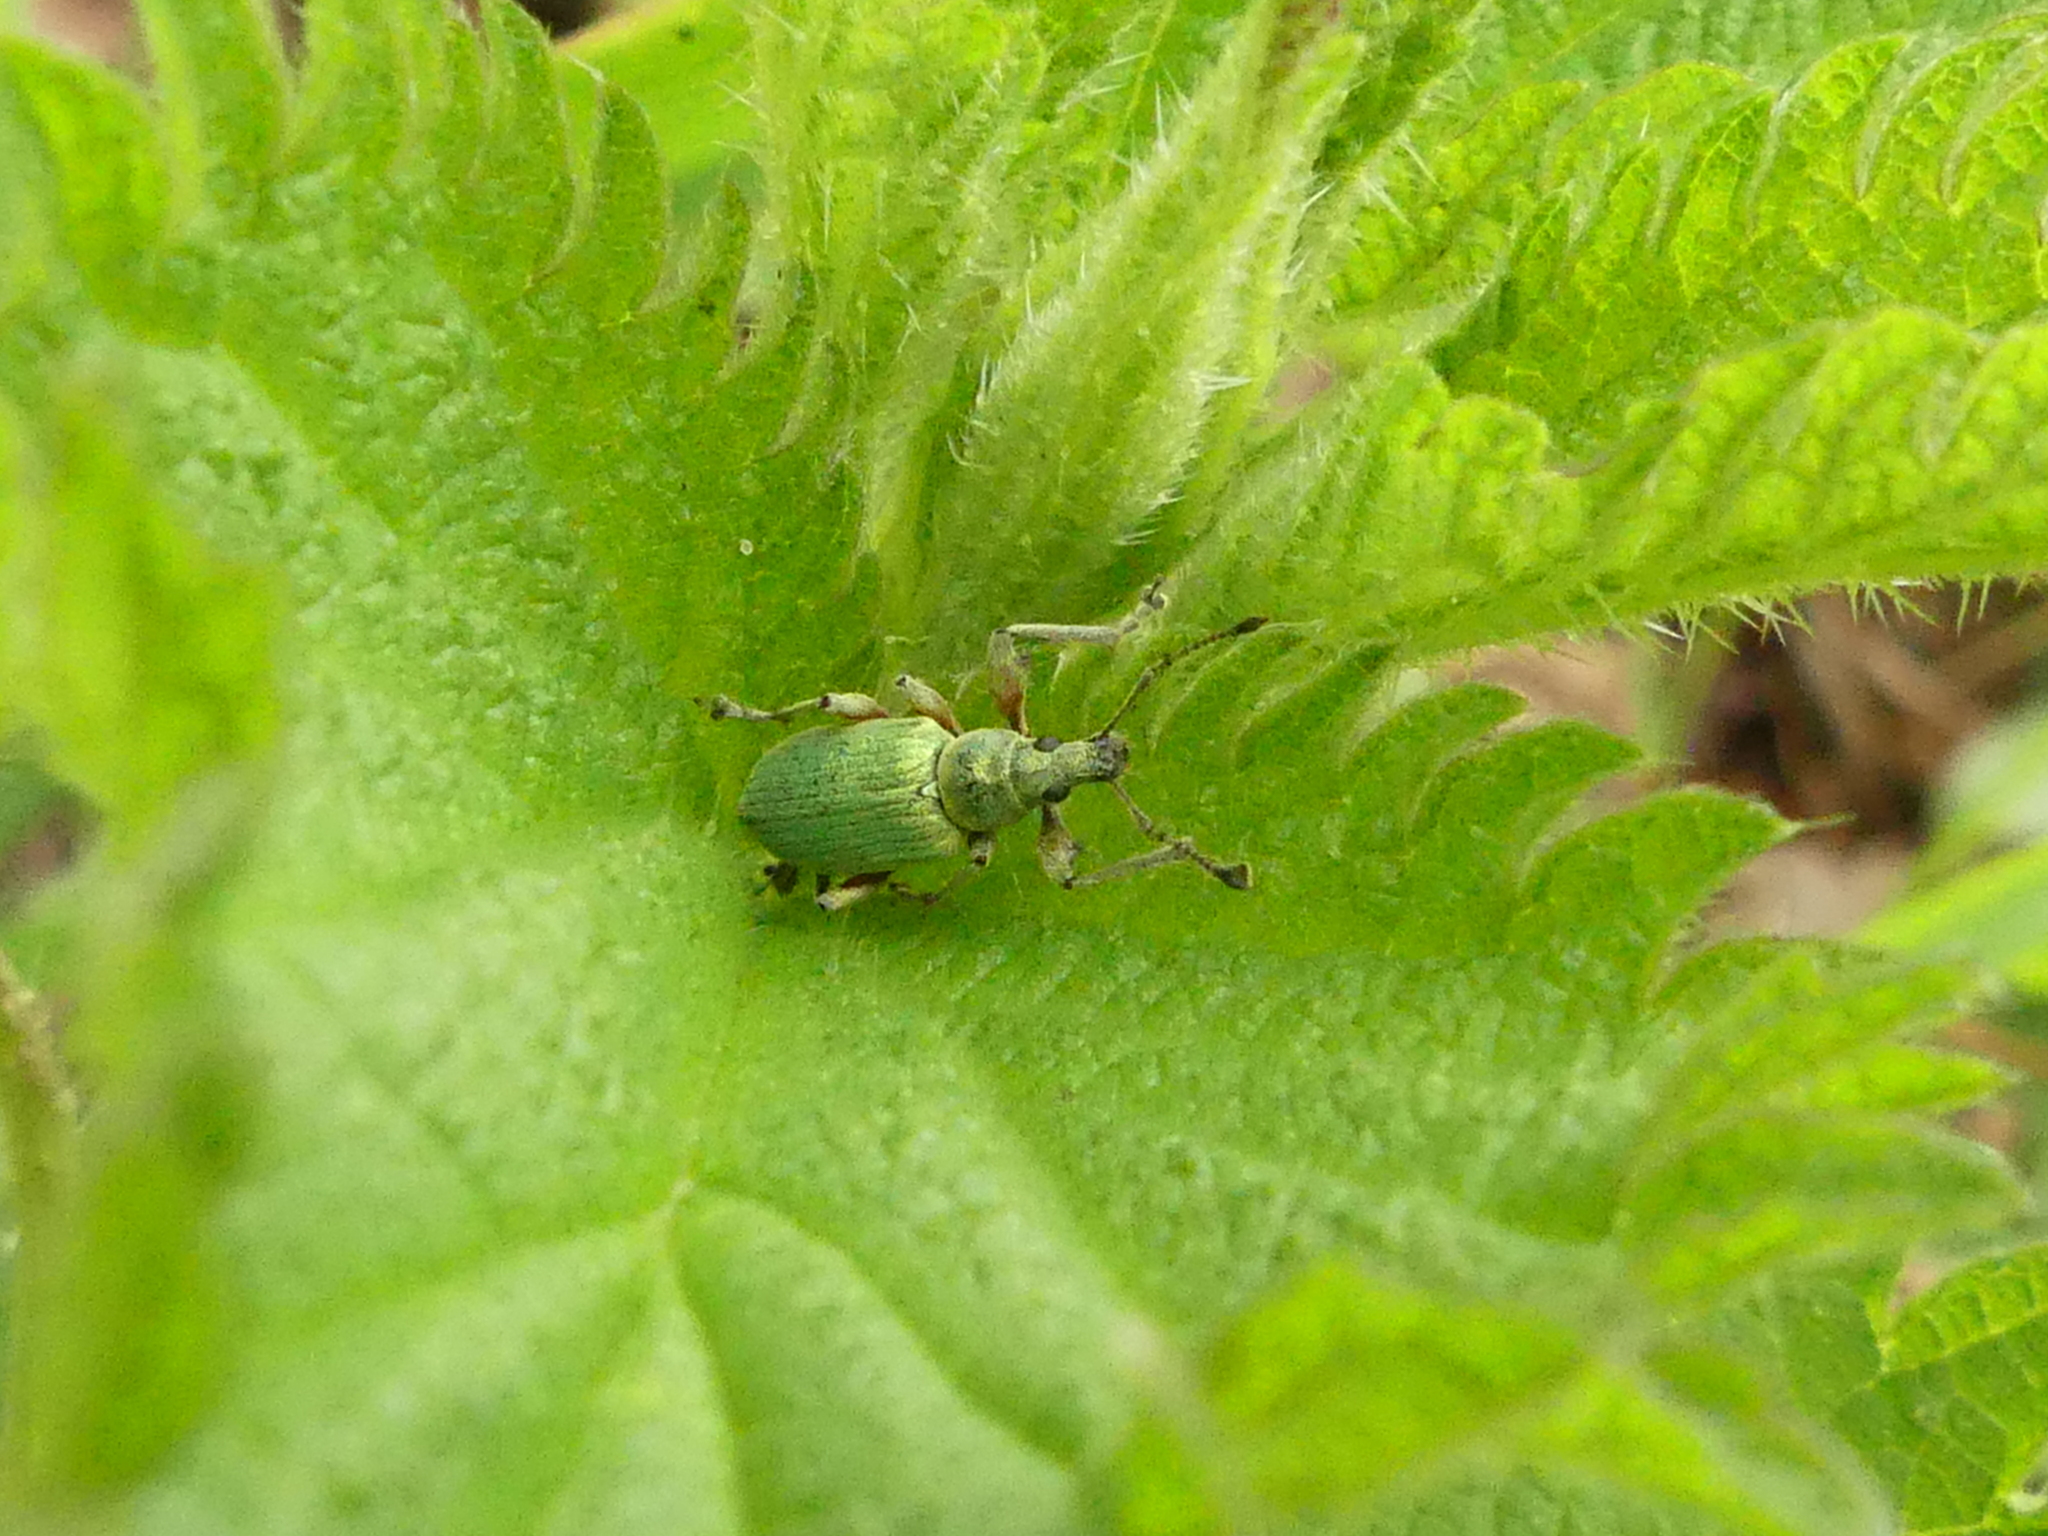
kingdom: Animalia
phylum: Arthropoda
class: Insecta
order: Coleoptera
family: Curculionidae
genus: Phyllobius
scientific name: Phyllobius pomaceus
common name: Green nettle weevil
